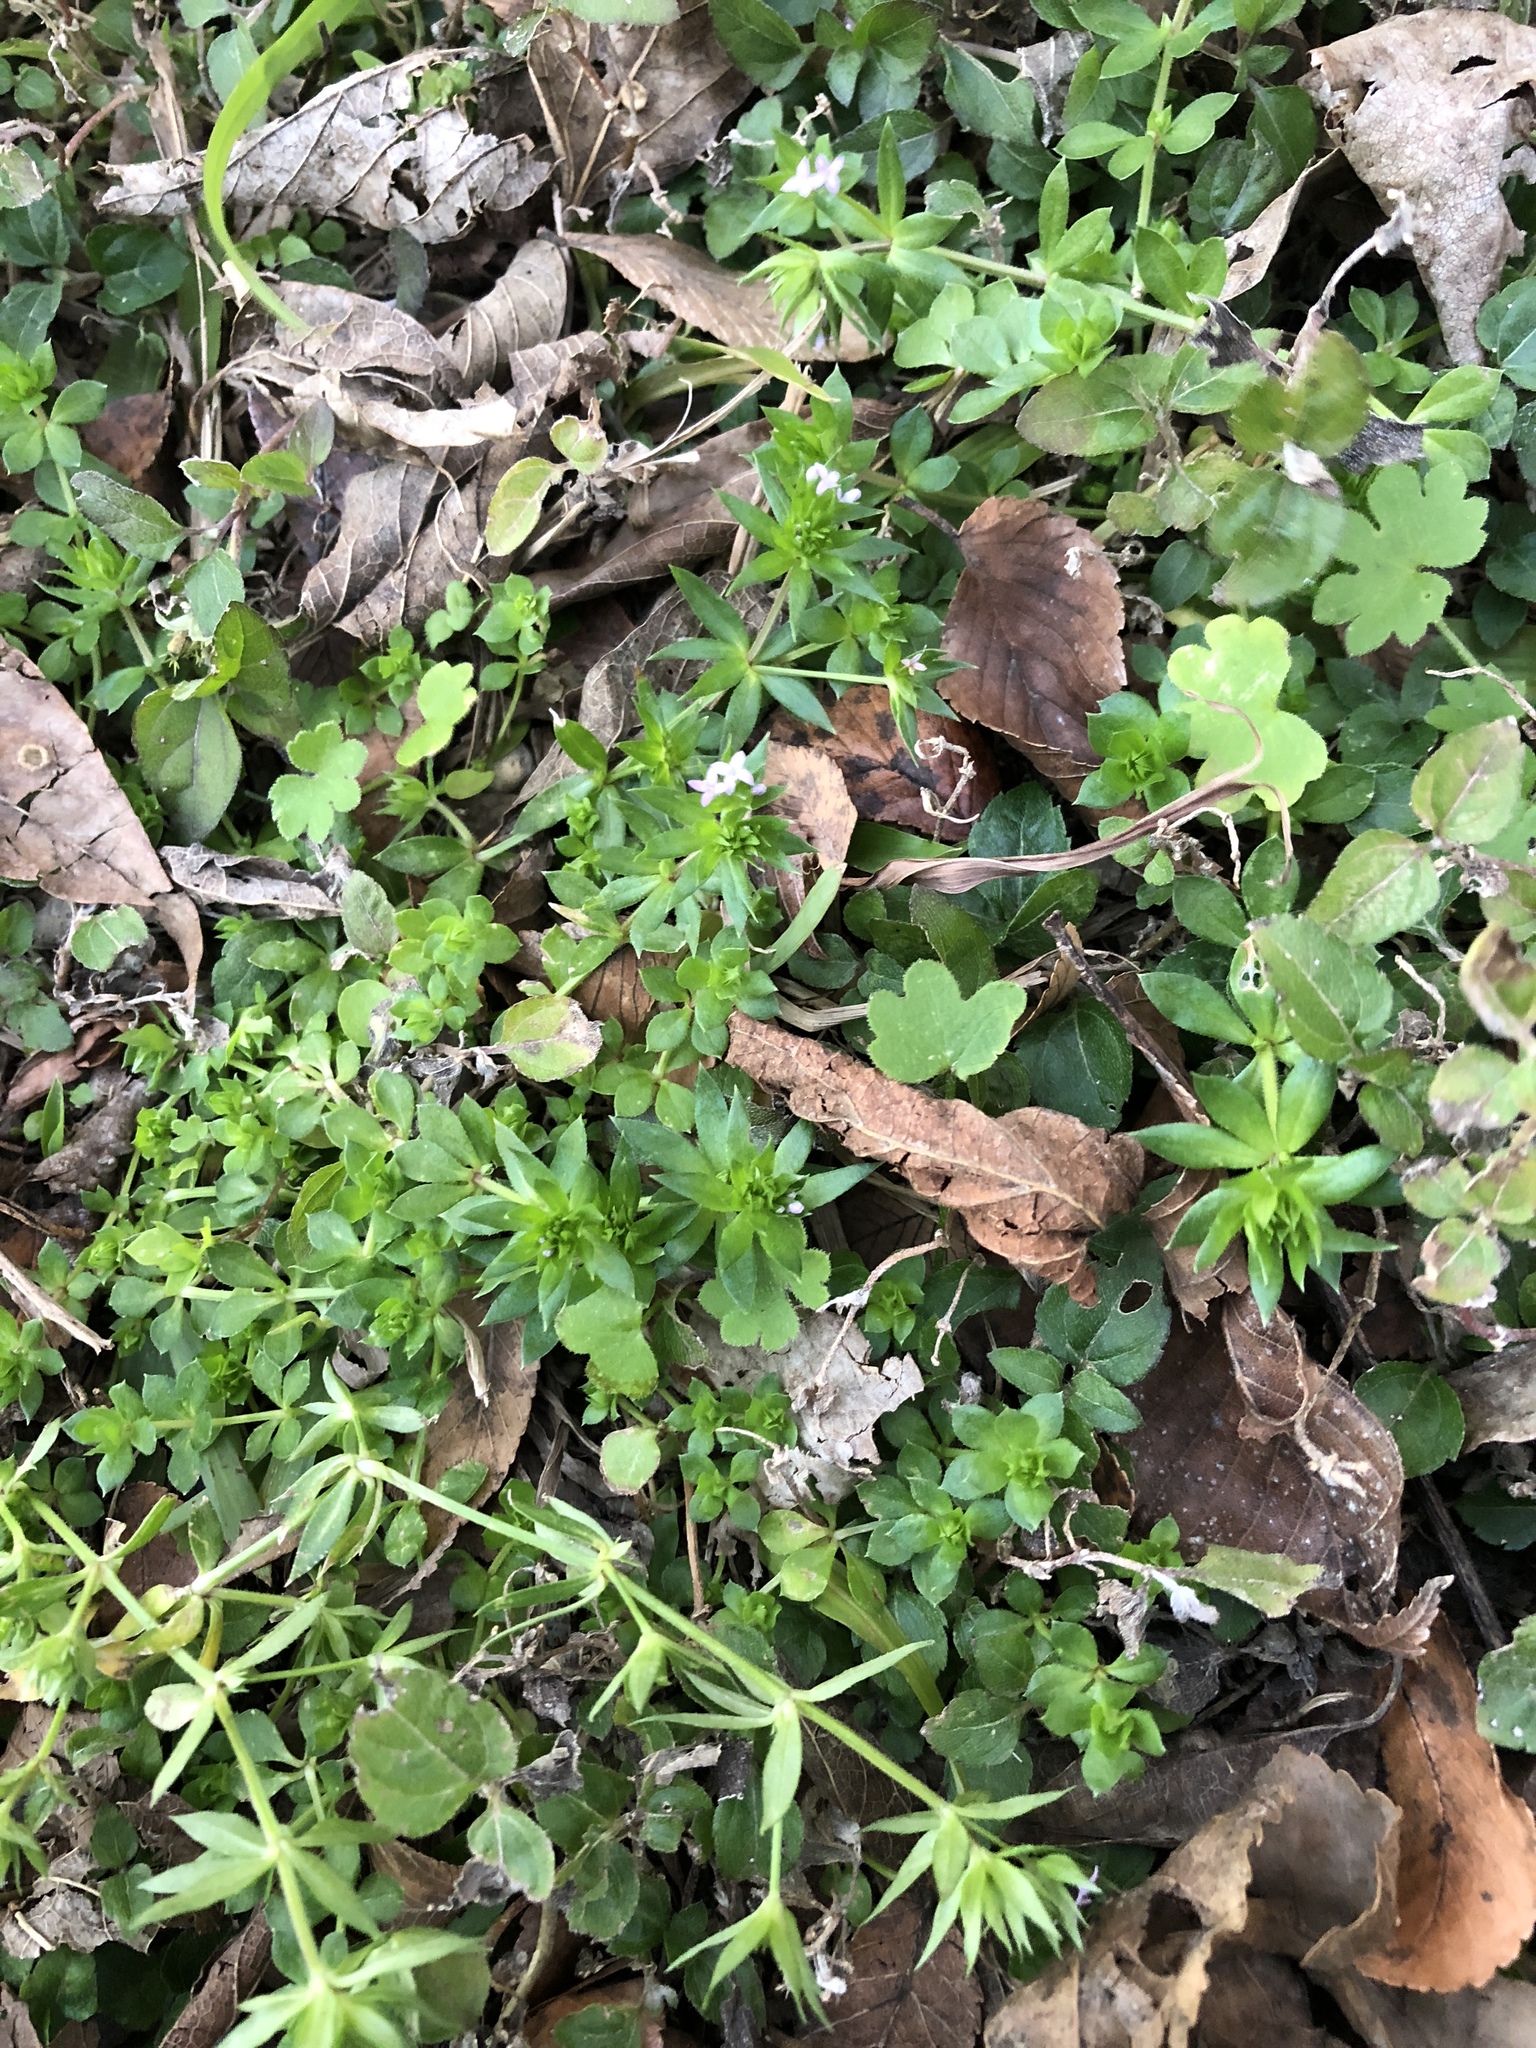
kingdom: Plantae
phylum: Tracheophyta
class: Magnoliopsida
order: Gentianales
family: Rubiaceae
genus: Sherardia
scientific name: Sherardia arvensis
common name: Field madder
